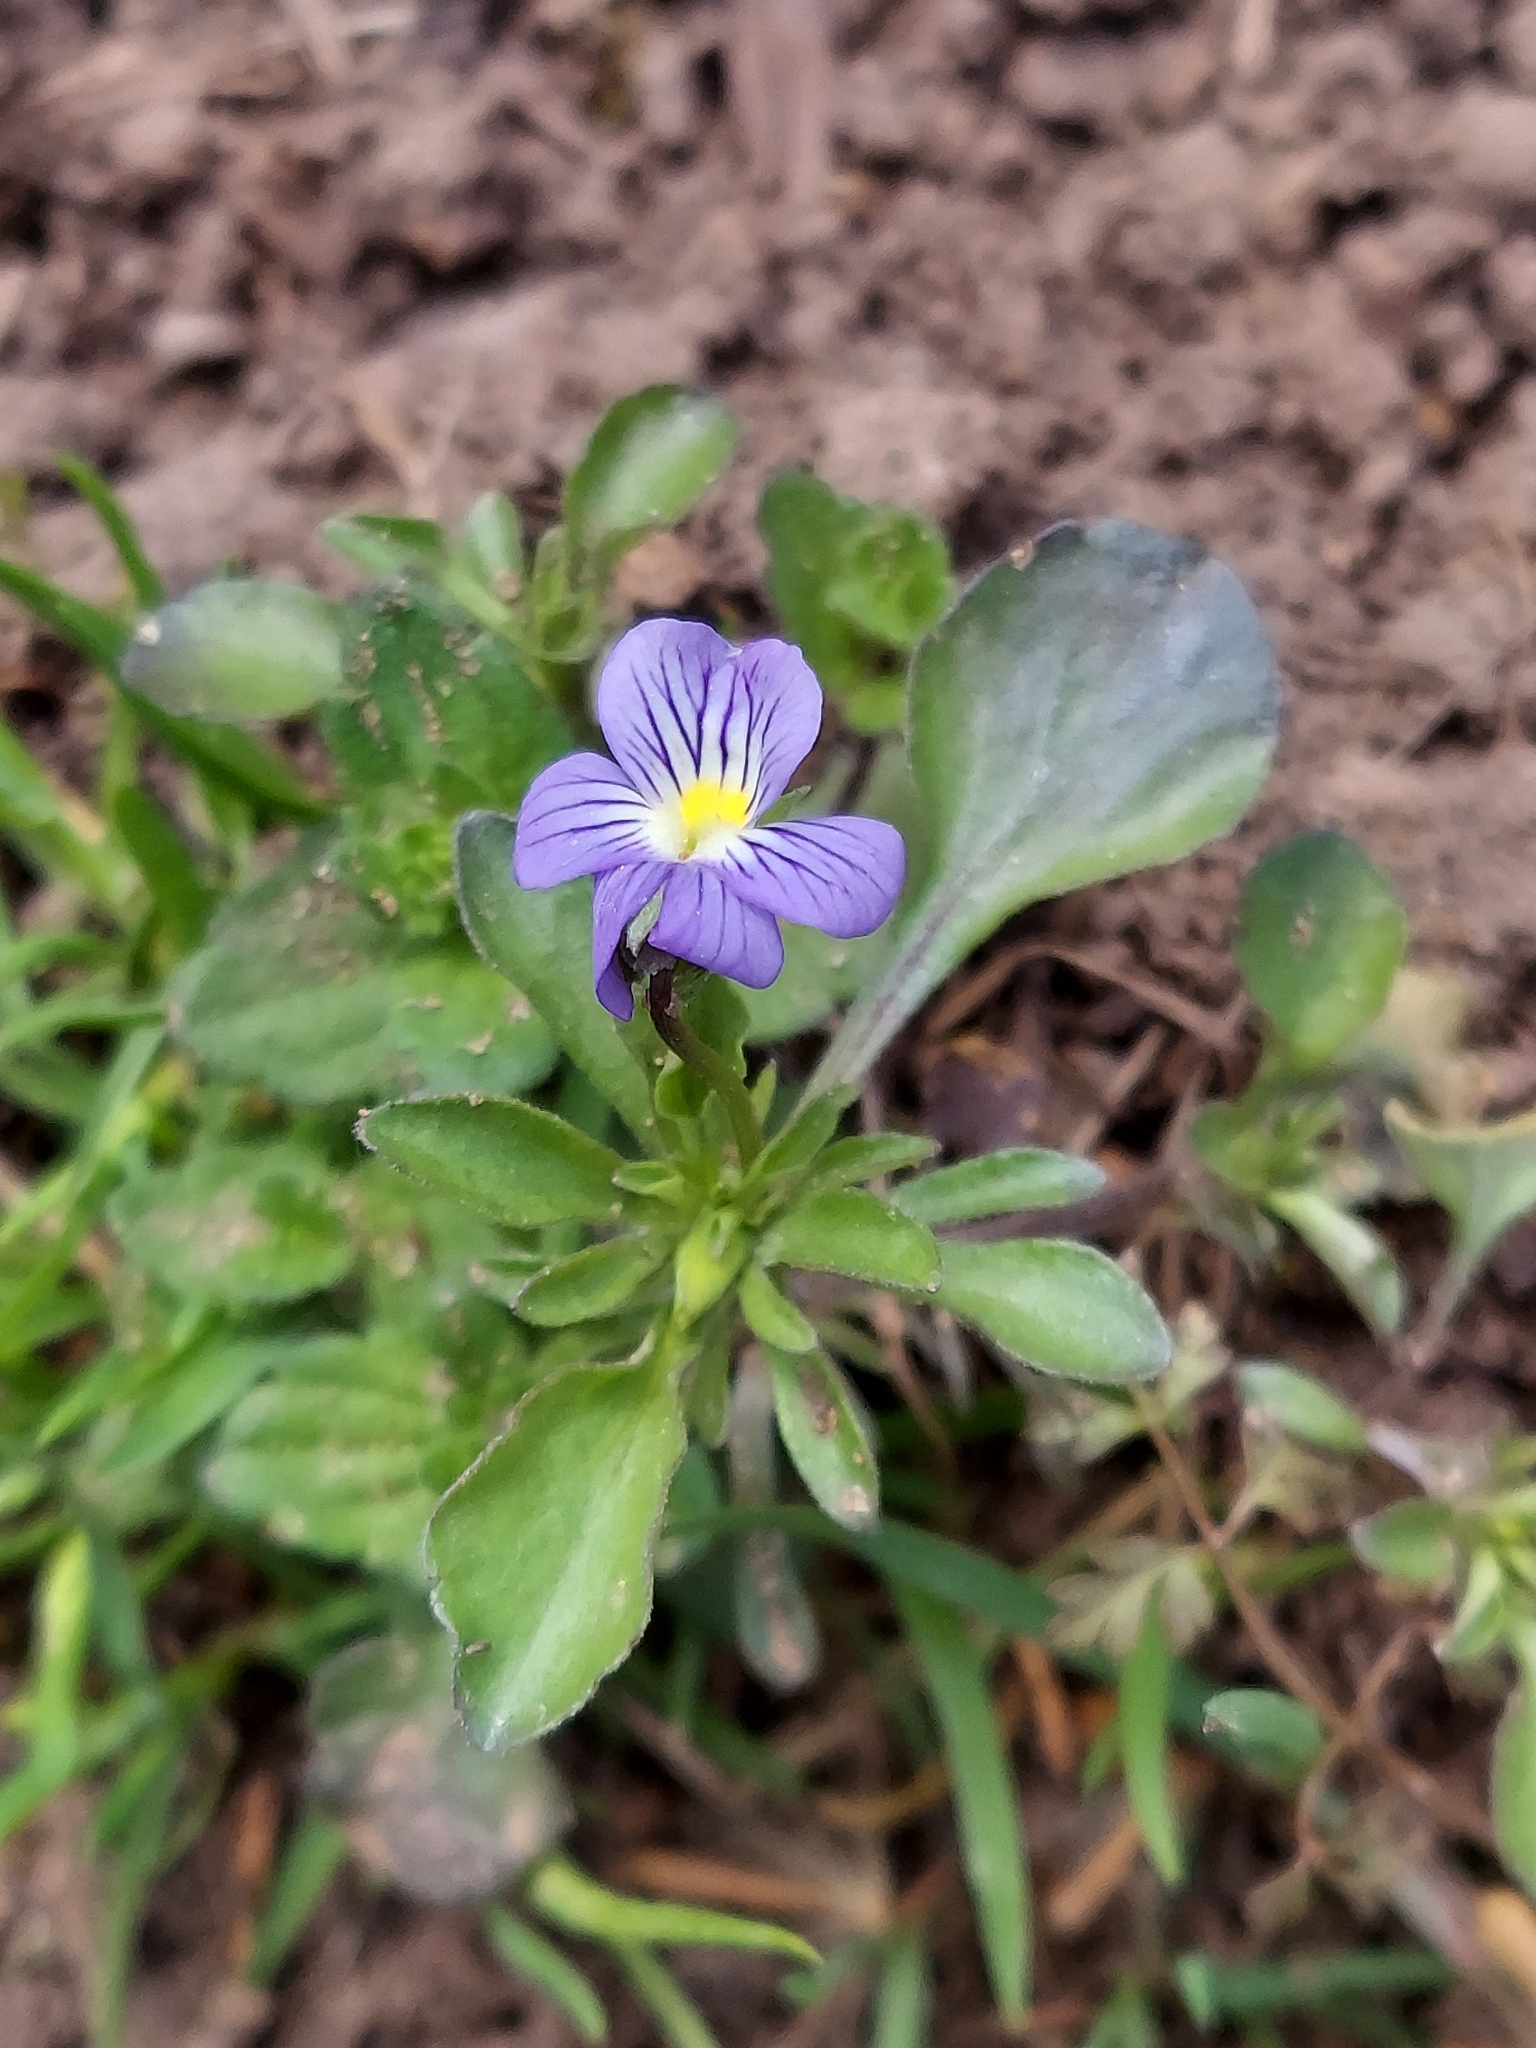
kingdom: Plantae
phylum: Tracheophyta
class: Magnoliopsida
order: Malpighiales
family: Violaceae
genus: Viola
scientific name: Viola rafinesquei
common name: American field pansy
